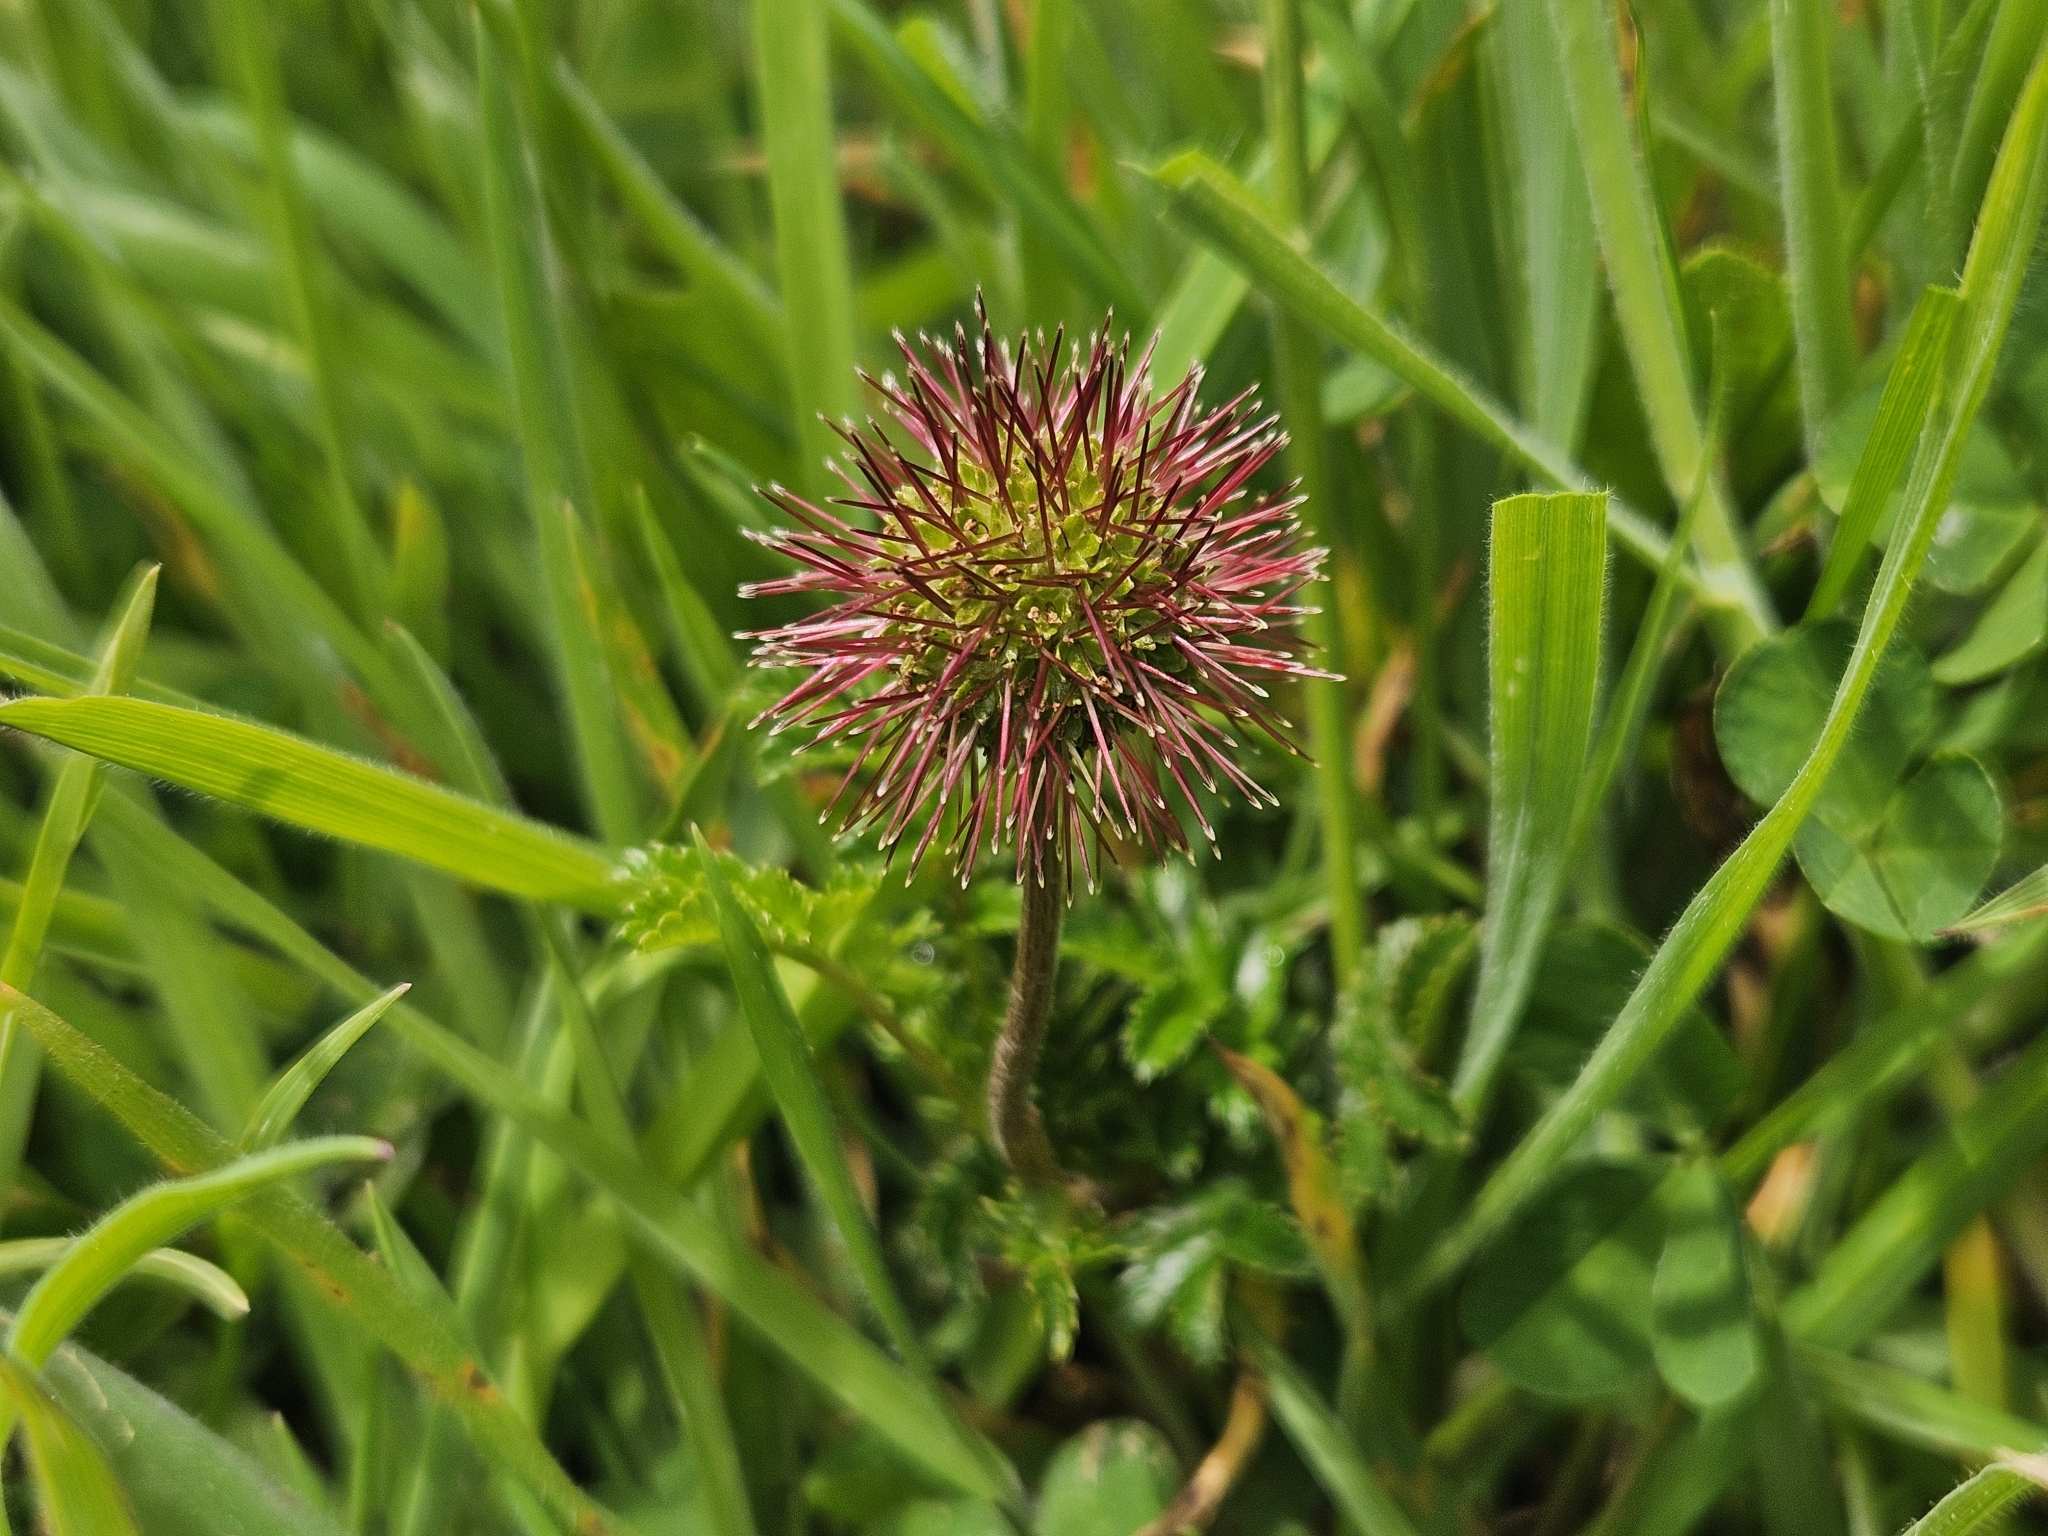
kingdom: Plantae
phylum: Tracheophyta
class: Magnoliopsida
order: Rosales
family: Rosaceae
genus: Acaena
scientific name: Acaena novae-zelandiae
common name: Pirri-pirri-bur
